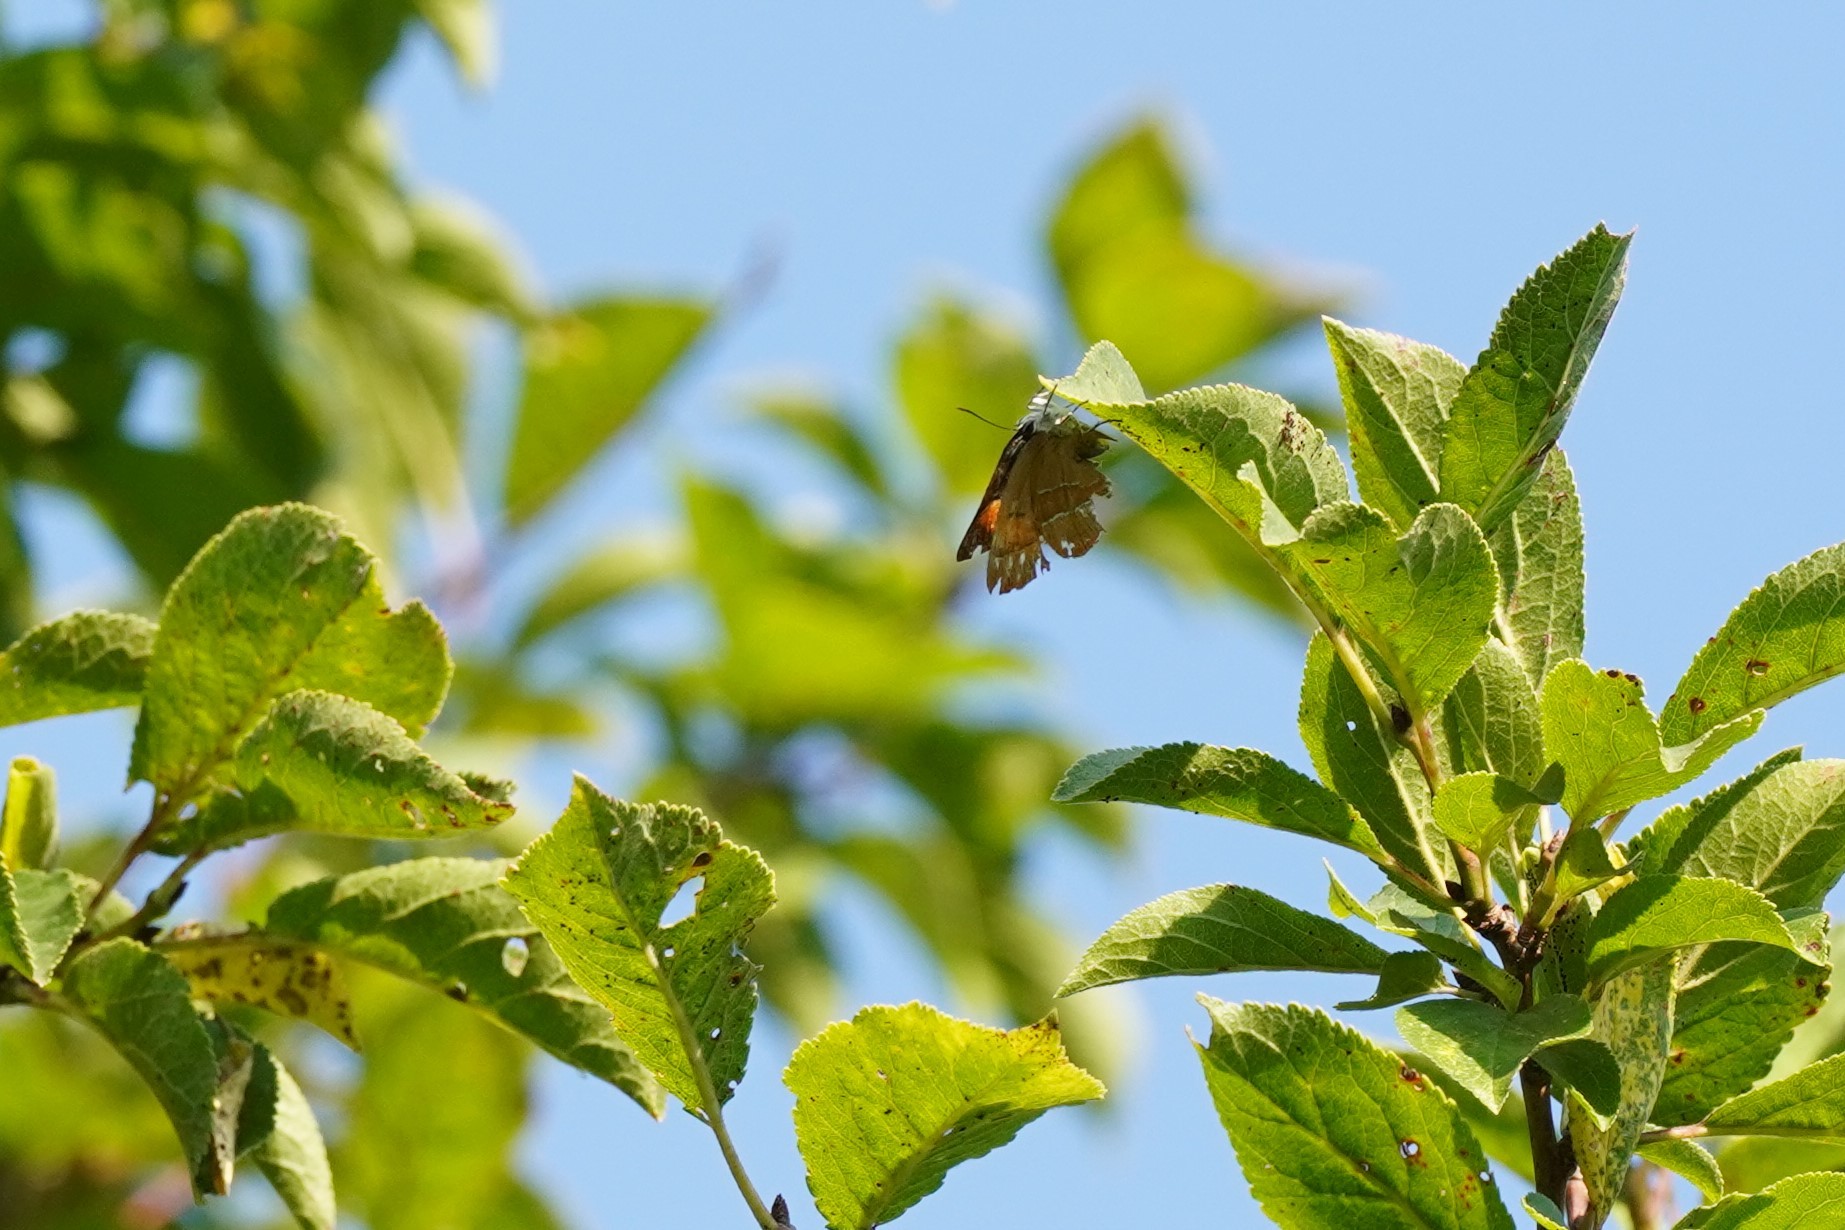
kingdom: Animalia
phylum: Arthropoda
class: Insecta
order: Lepidoptera
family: Lycaenidae
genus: Thecla
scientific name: Thecla betulae
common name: Brown hairstreak
